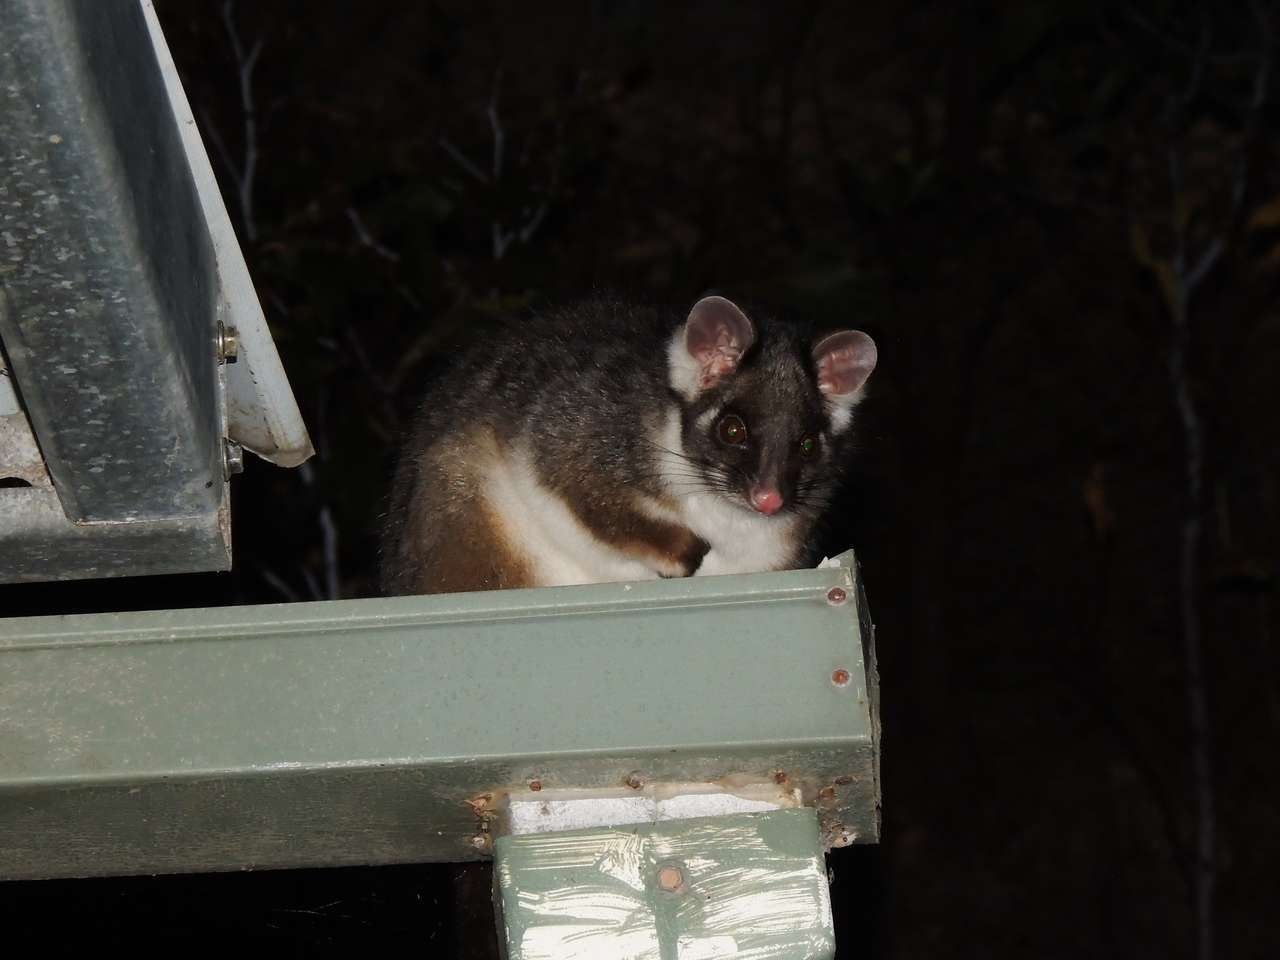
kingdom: Animalia
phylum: Chordata
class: Mammalia
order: Diprotodontia
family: Pseudocheiridae
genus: Pseudocheirus
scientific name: Pseudocheirus peregrinus
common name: Common ringtail possum
